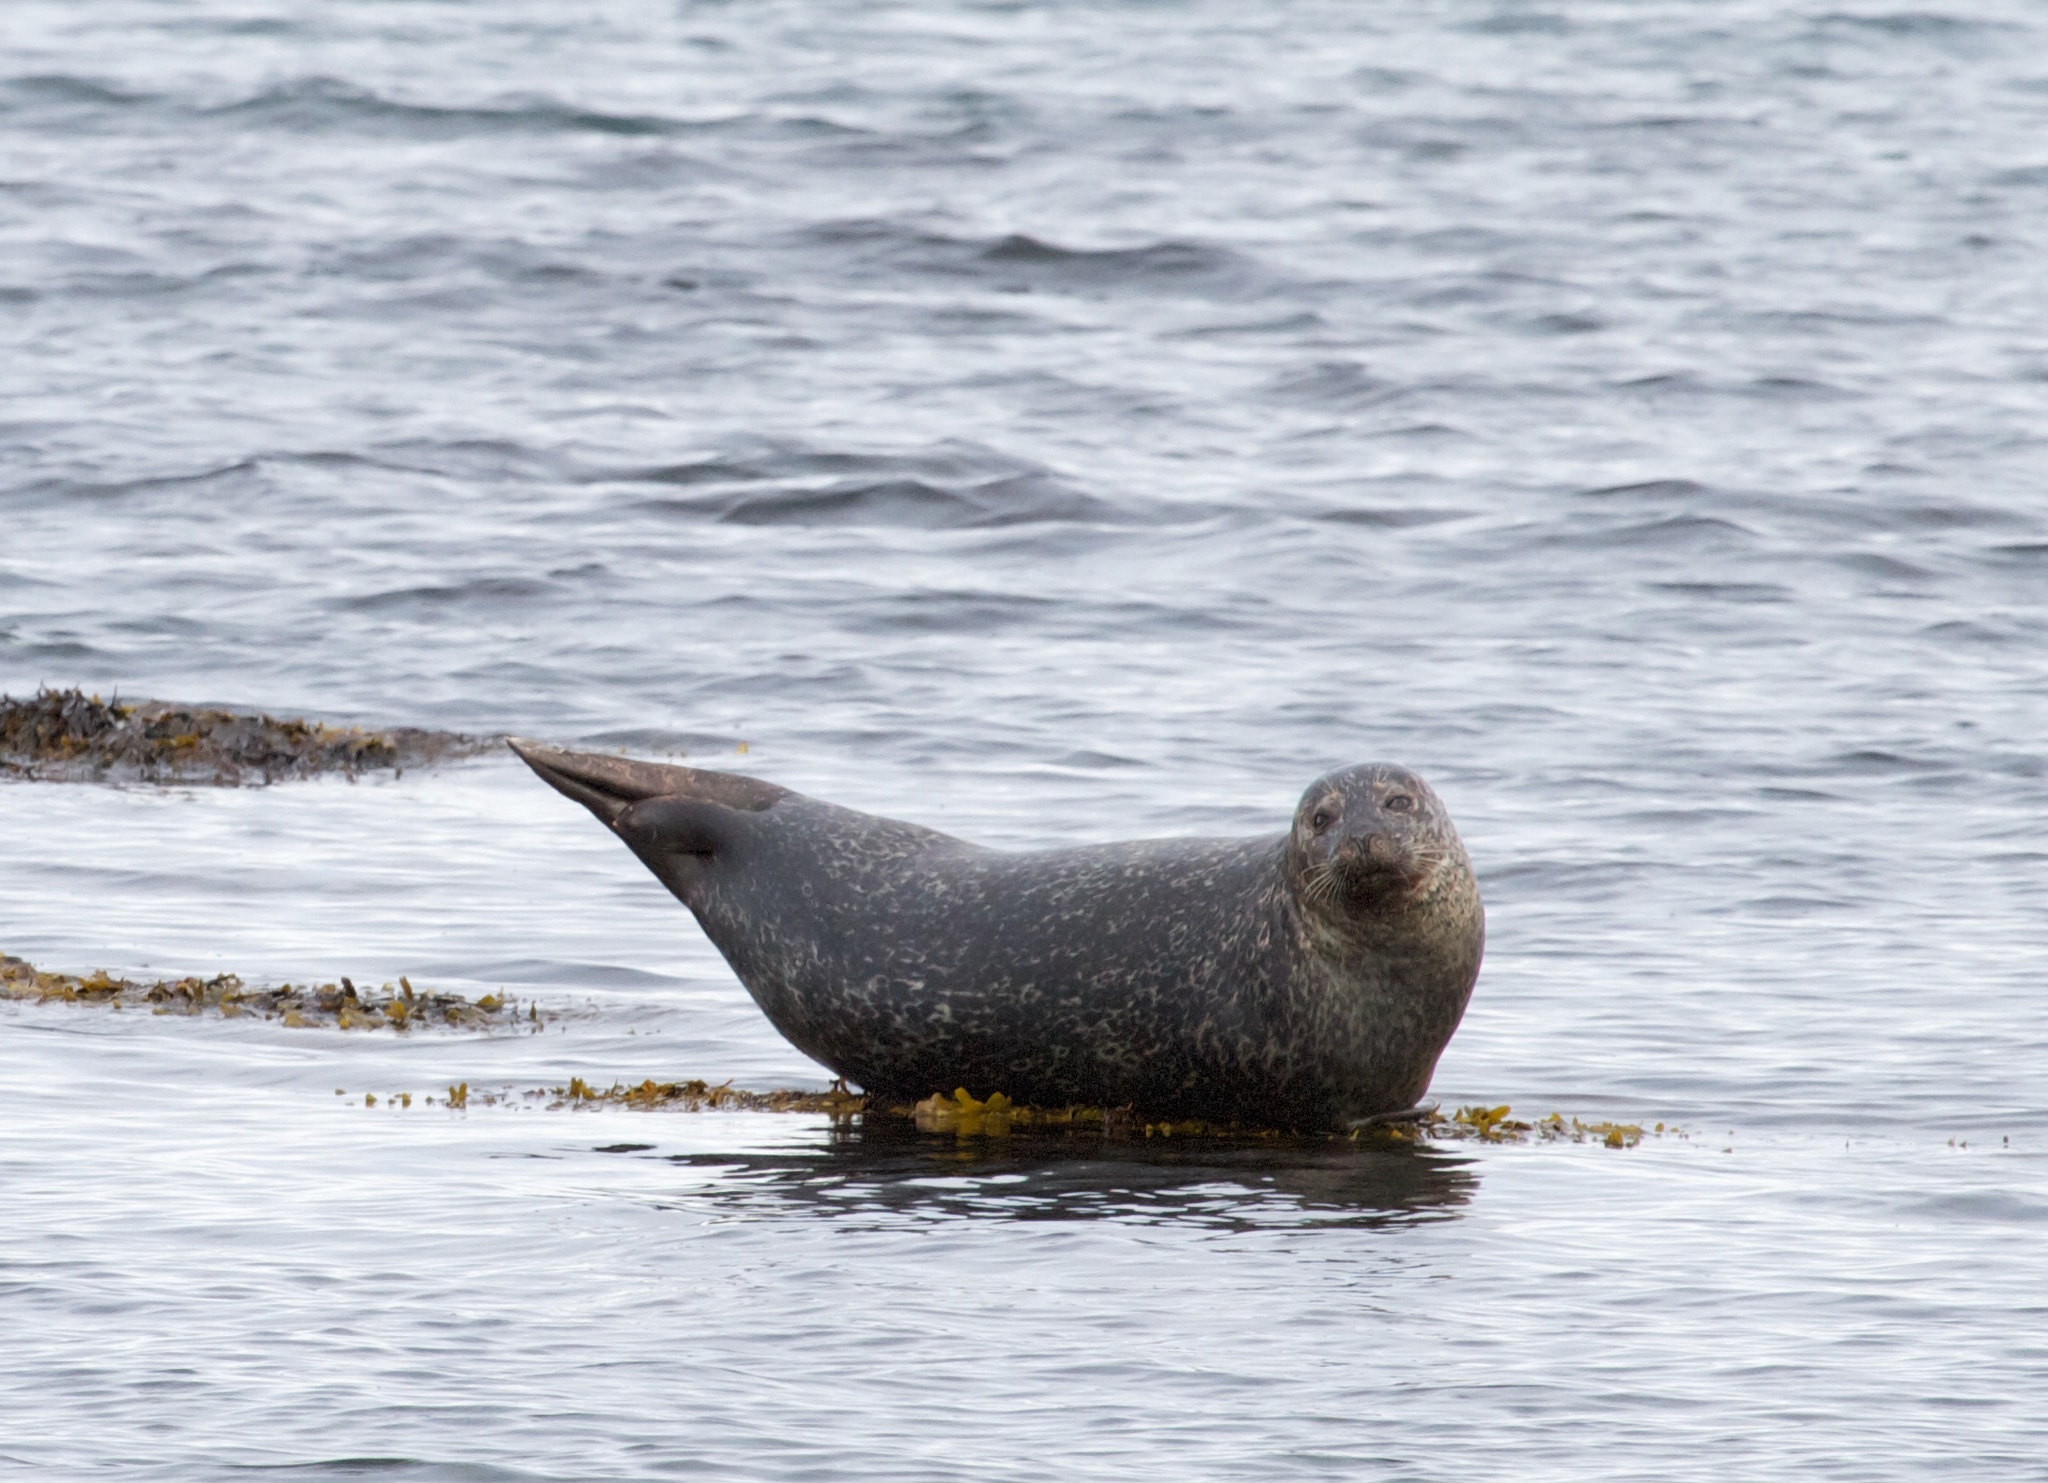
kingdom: Animalia
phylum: Chordata
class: Mammalia
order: Carnivora
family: Phocidae
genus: Phoca
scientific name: Phoca vitulina
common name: Harbor seal
